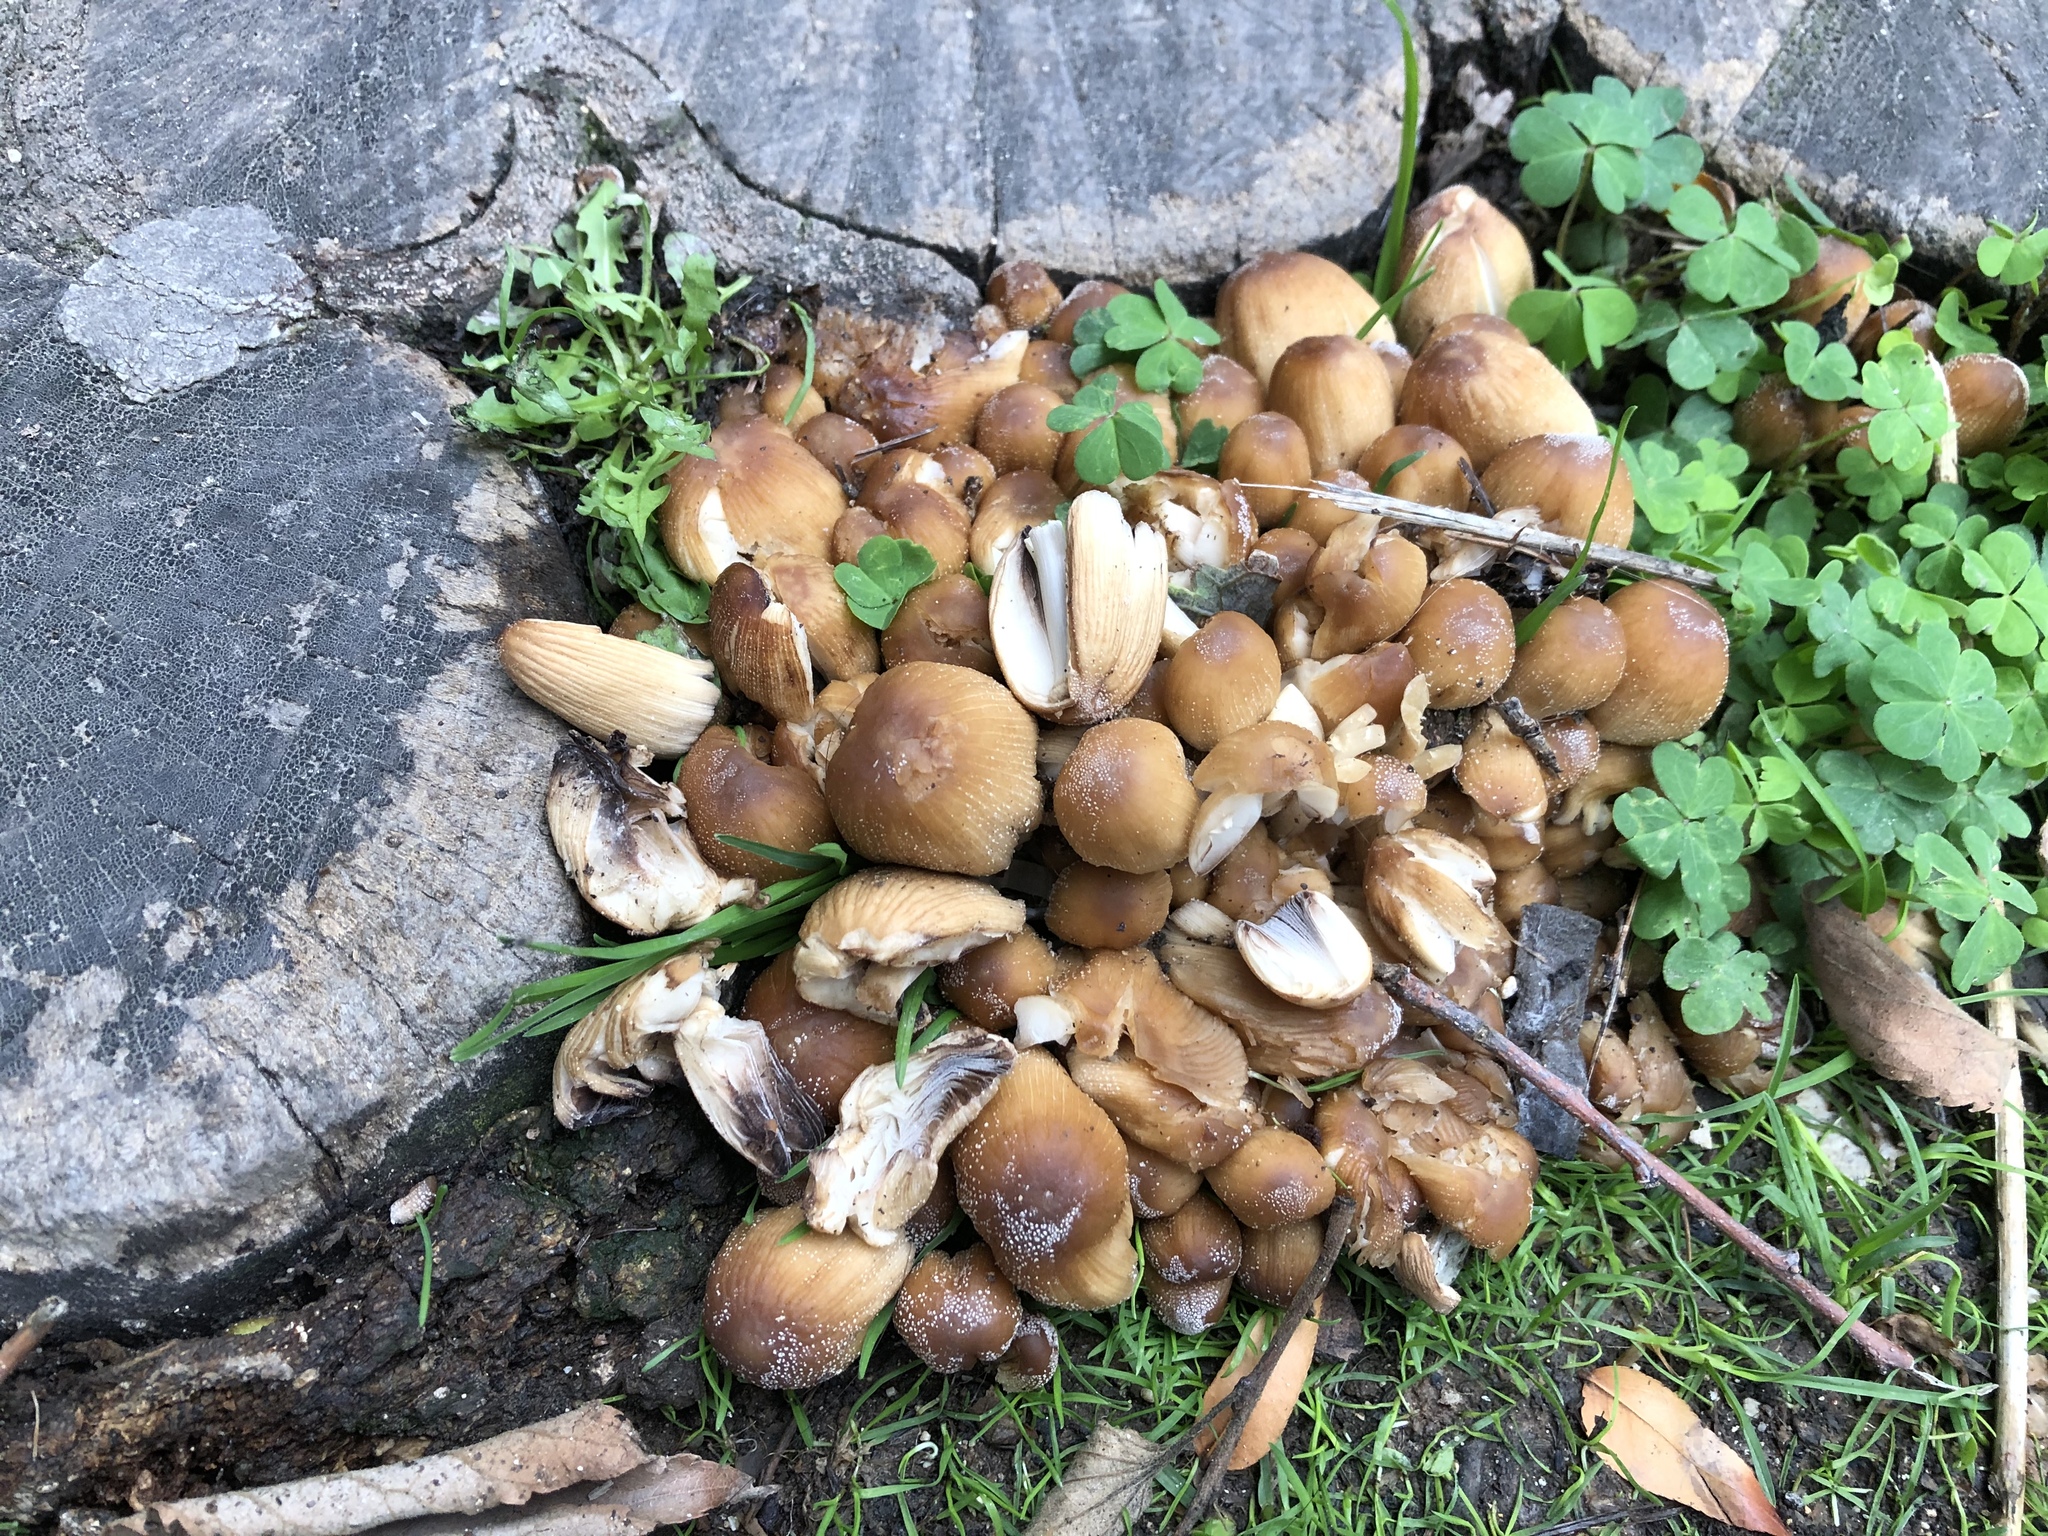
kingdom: Fungi
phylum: Basidiomycota
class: Agaricomycetes
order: Agaricales
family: Psathyrellaceae
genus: Coprinellus
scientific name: Coprinellus micaceus
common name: Glistening ink-cap
